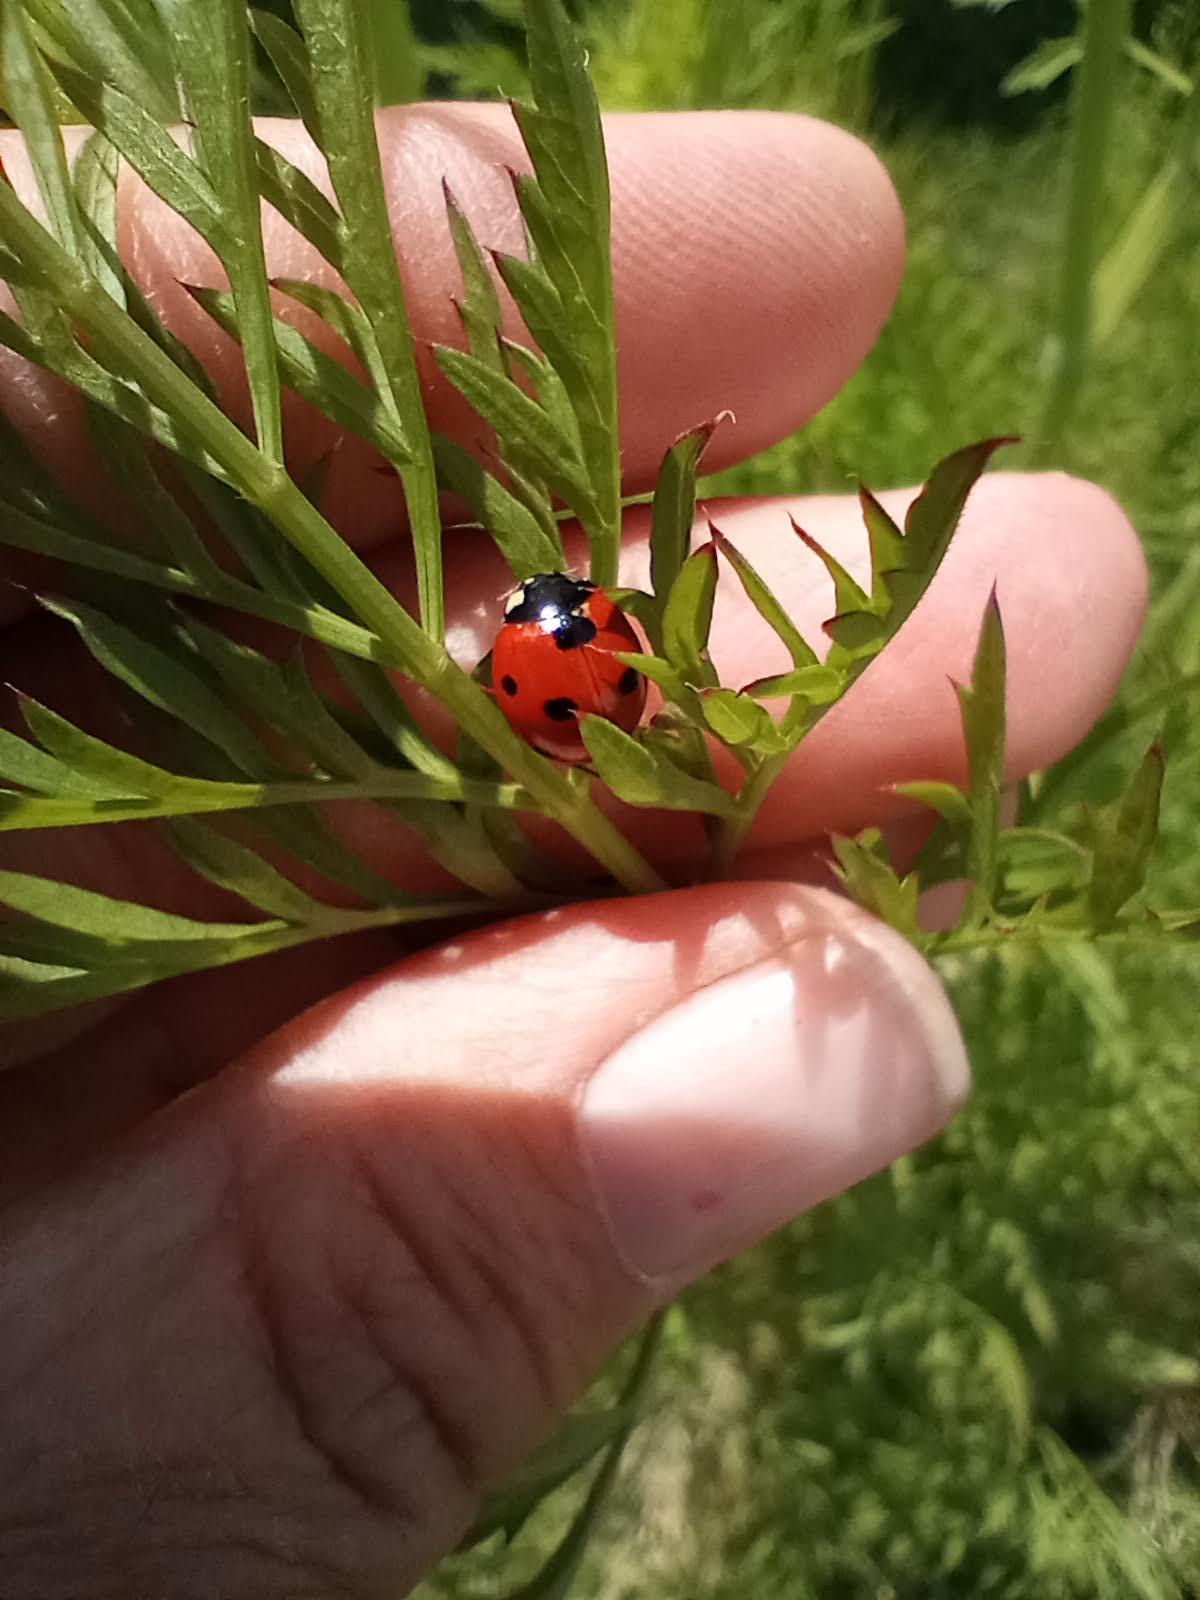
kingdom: Animalia
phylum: Arthropoda
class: Insecta
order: Coleoptera
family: Coccinellidae
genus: Coccinella
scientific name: Coccinella septempunctata
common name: Sevenspotted lady beetle
